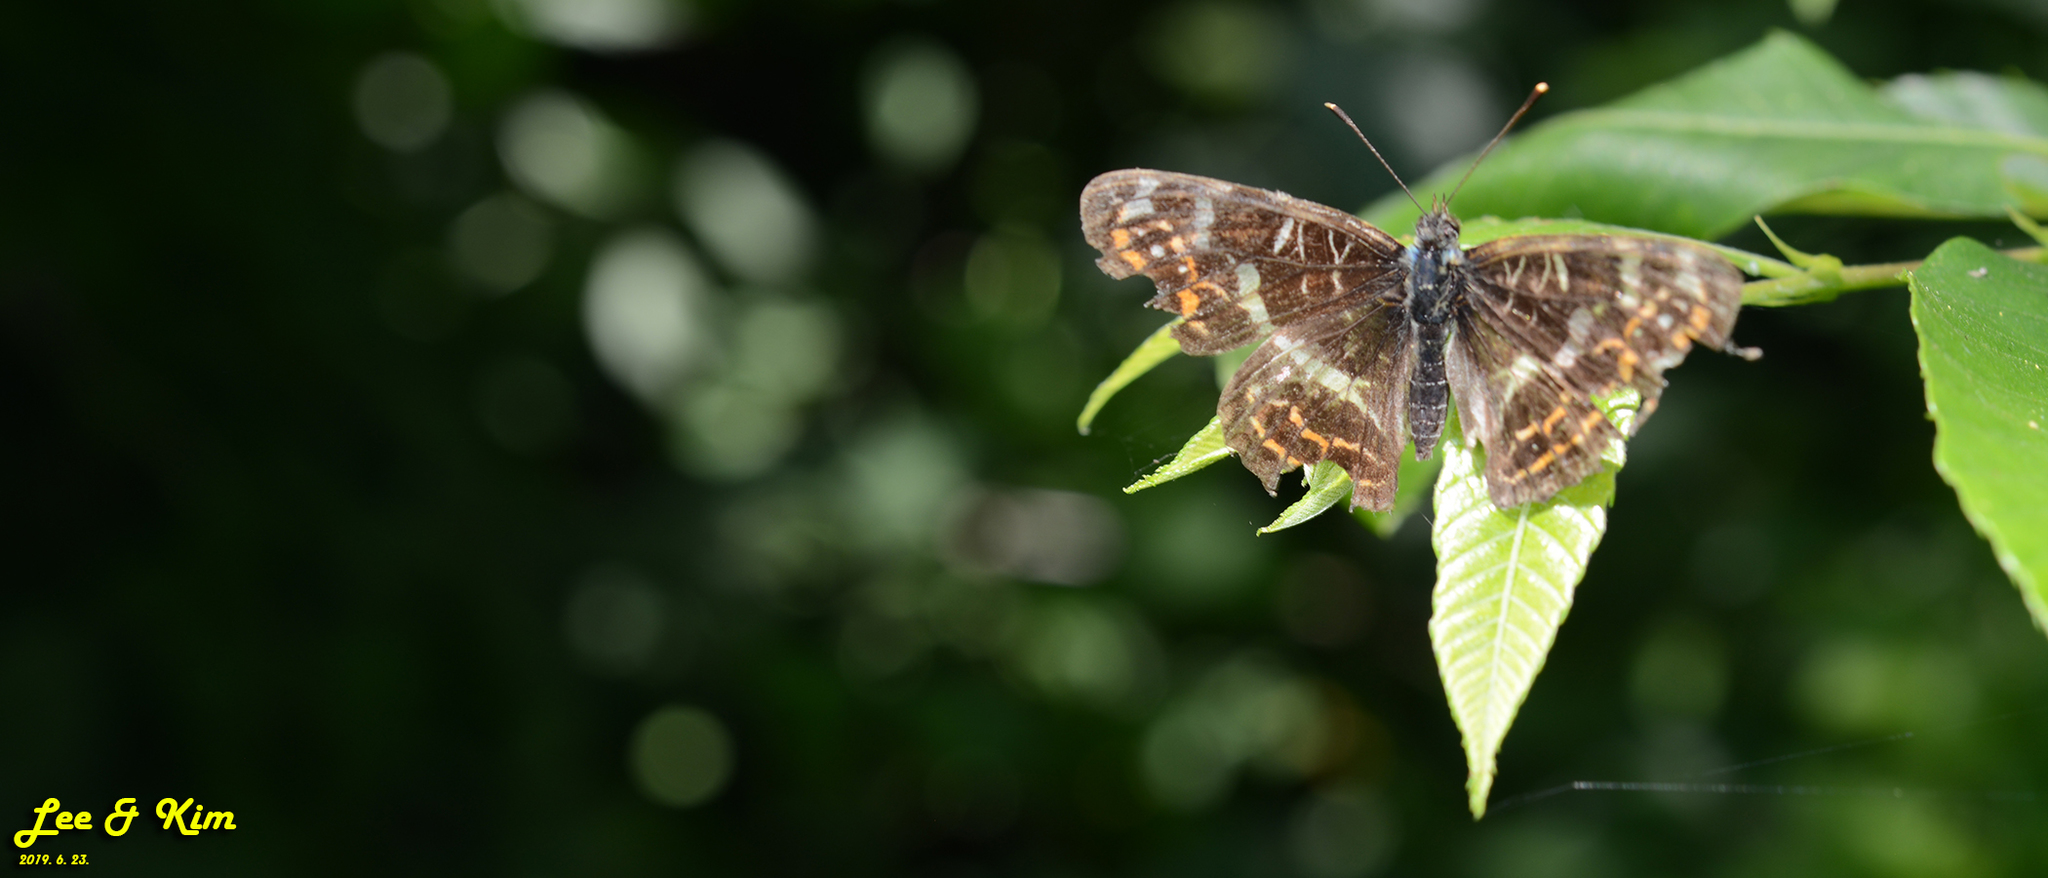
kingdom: Animalia
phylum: Arthropoda
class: Insecta
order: Lepidoptera
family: Nymphalidae
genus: Araschnia
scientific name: Araschnia burejana
